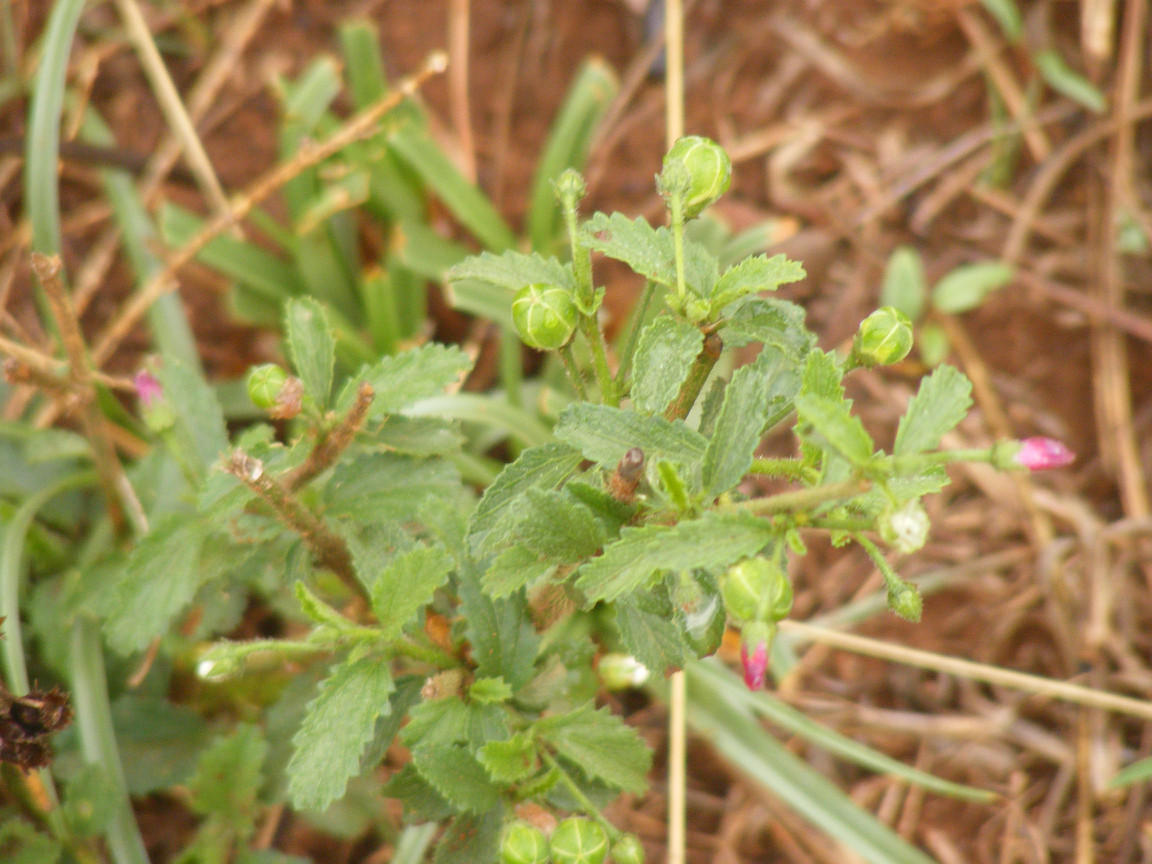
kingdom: Plantae
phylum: Tracheophyta
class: Magnoliopsida
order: Malvales
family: Malvaceae
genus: Hibiscus
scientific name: Hibiscus rhodanthus
